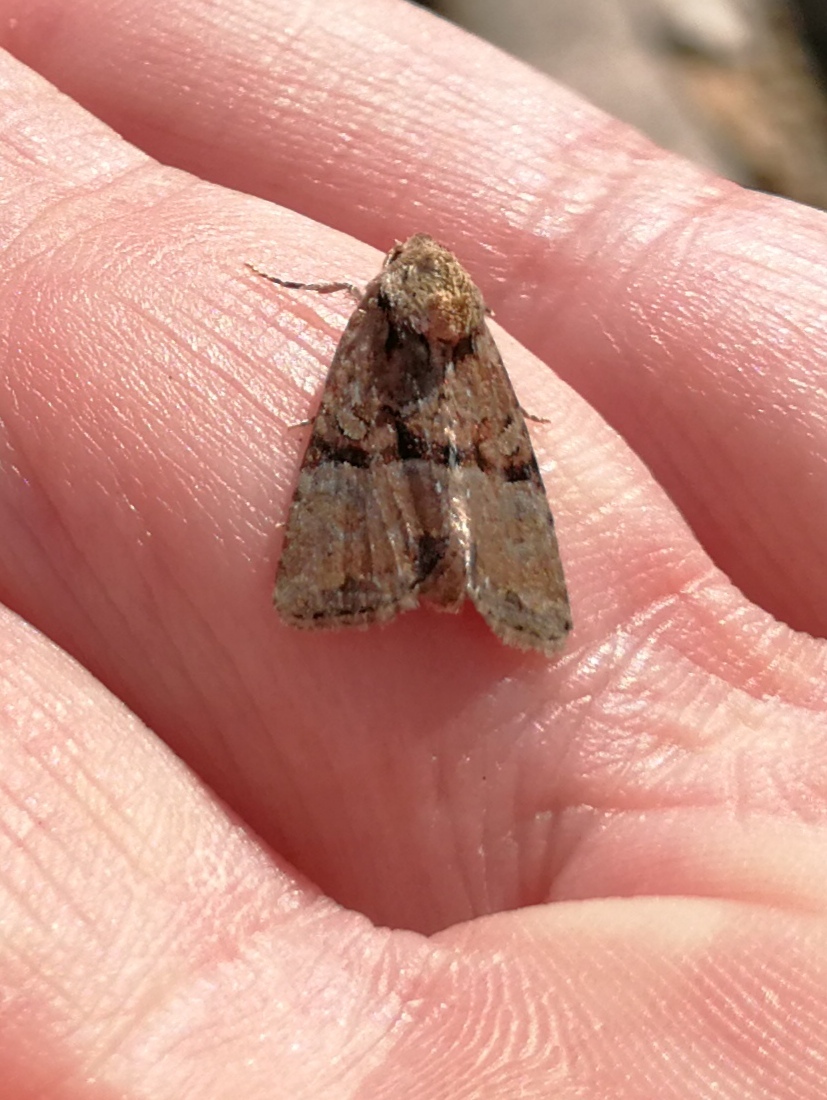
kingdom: Animalia
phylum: Arthropoda
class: Insecta
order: Lepidoptera
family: Noctuidae
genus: Mesoligia
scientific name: Mesoligia furuncula
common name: Cloaked minor
